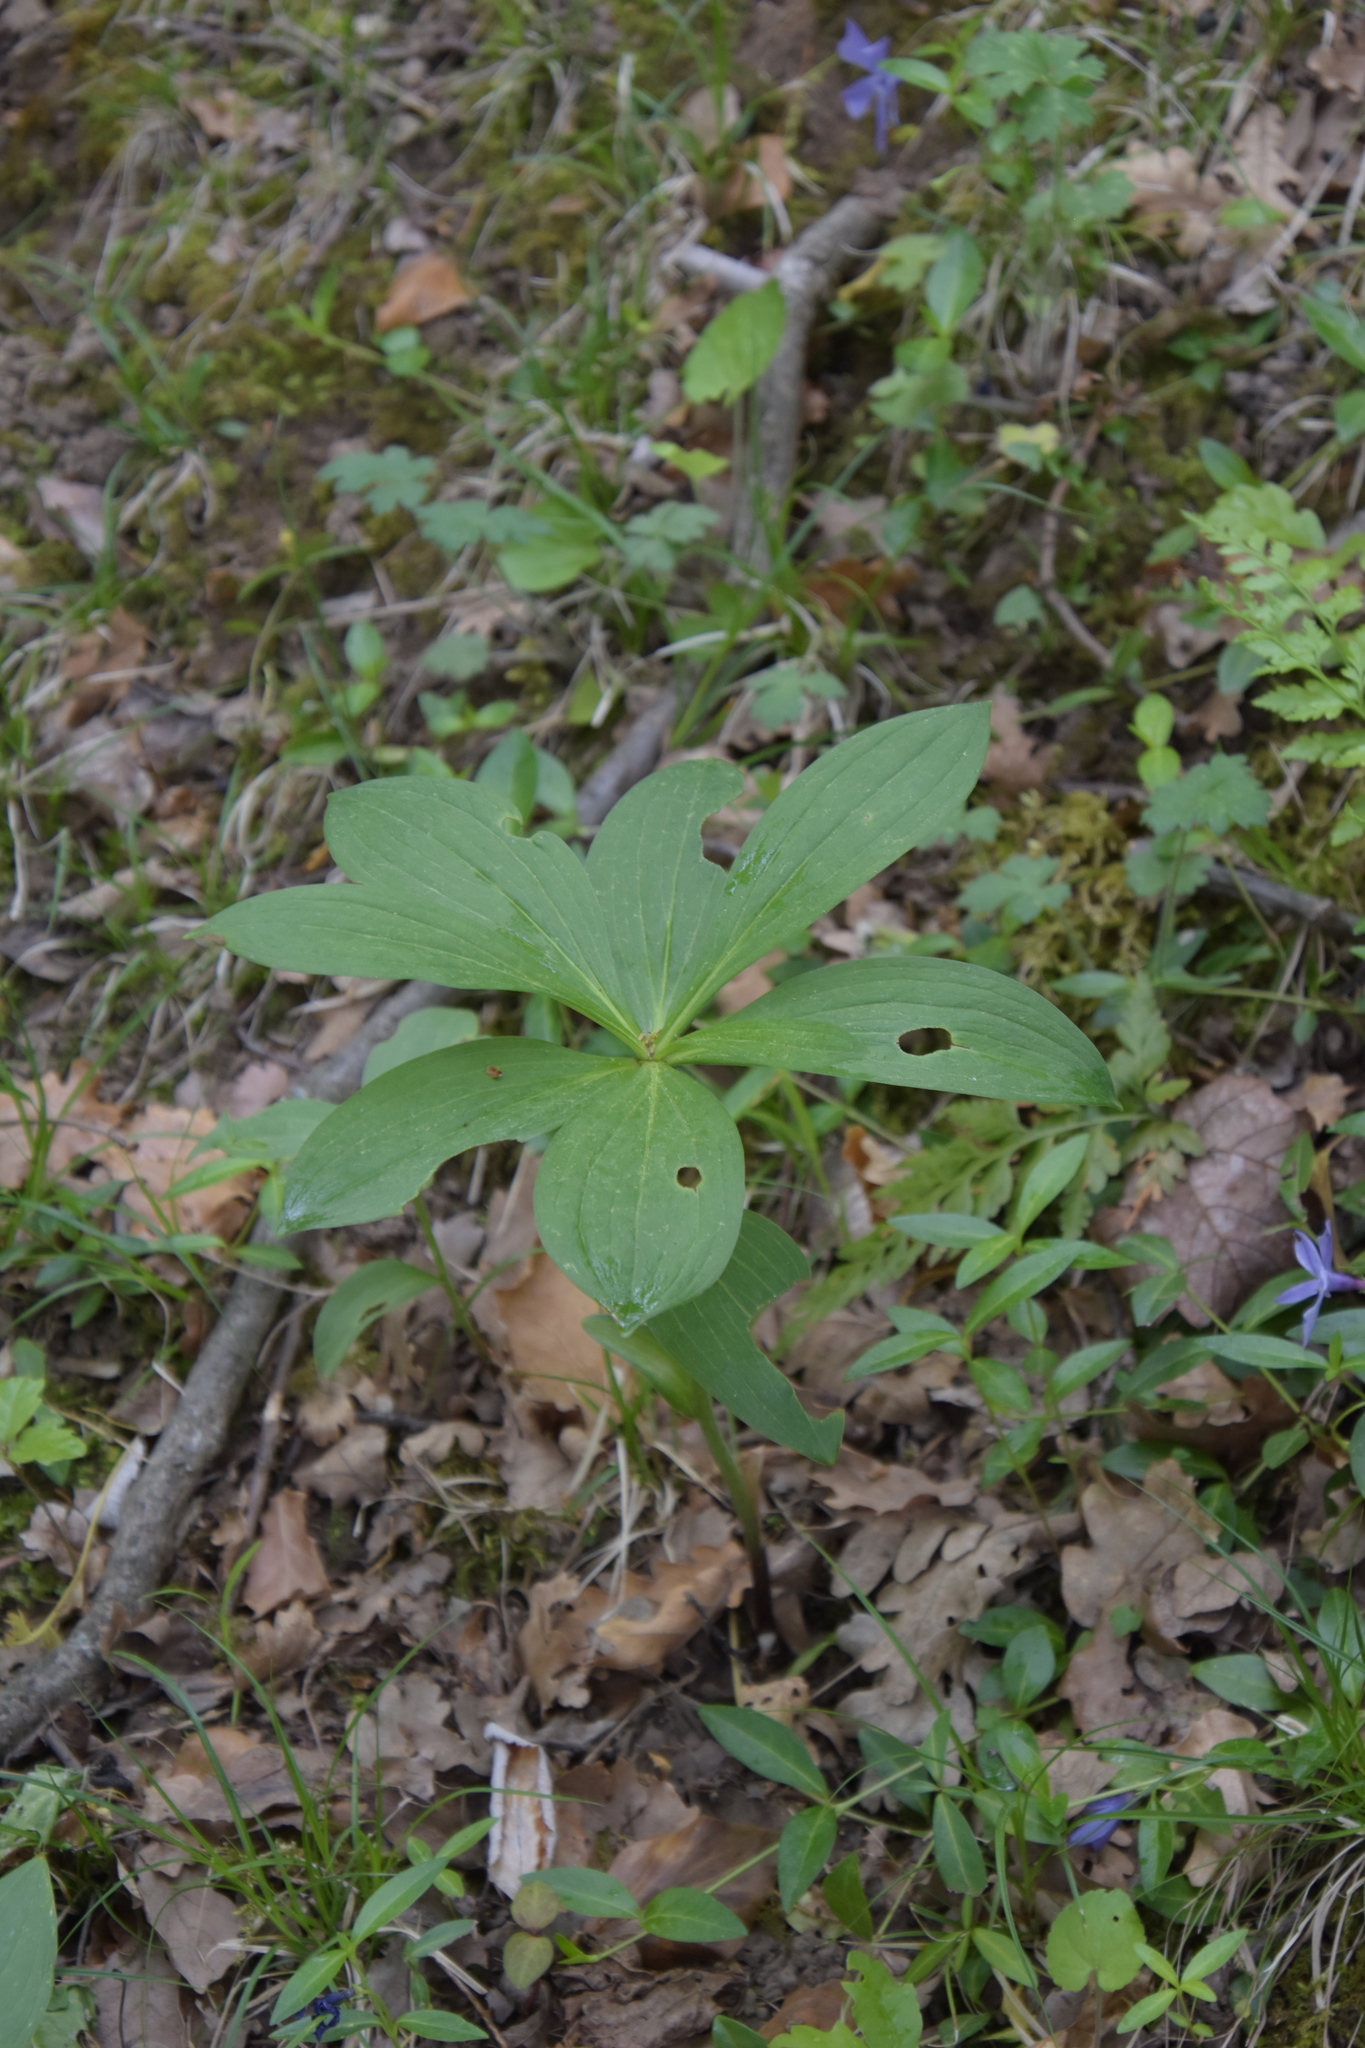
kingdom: Plantae
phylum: Tracheophyta
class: Liliopsida
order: Liliales
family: Liliaceae
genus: Lilium
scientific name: Lilium martagon
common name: Martagon lily
